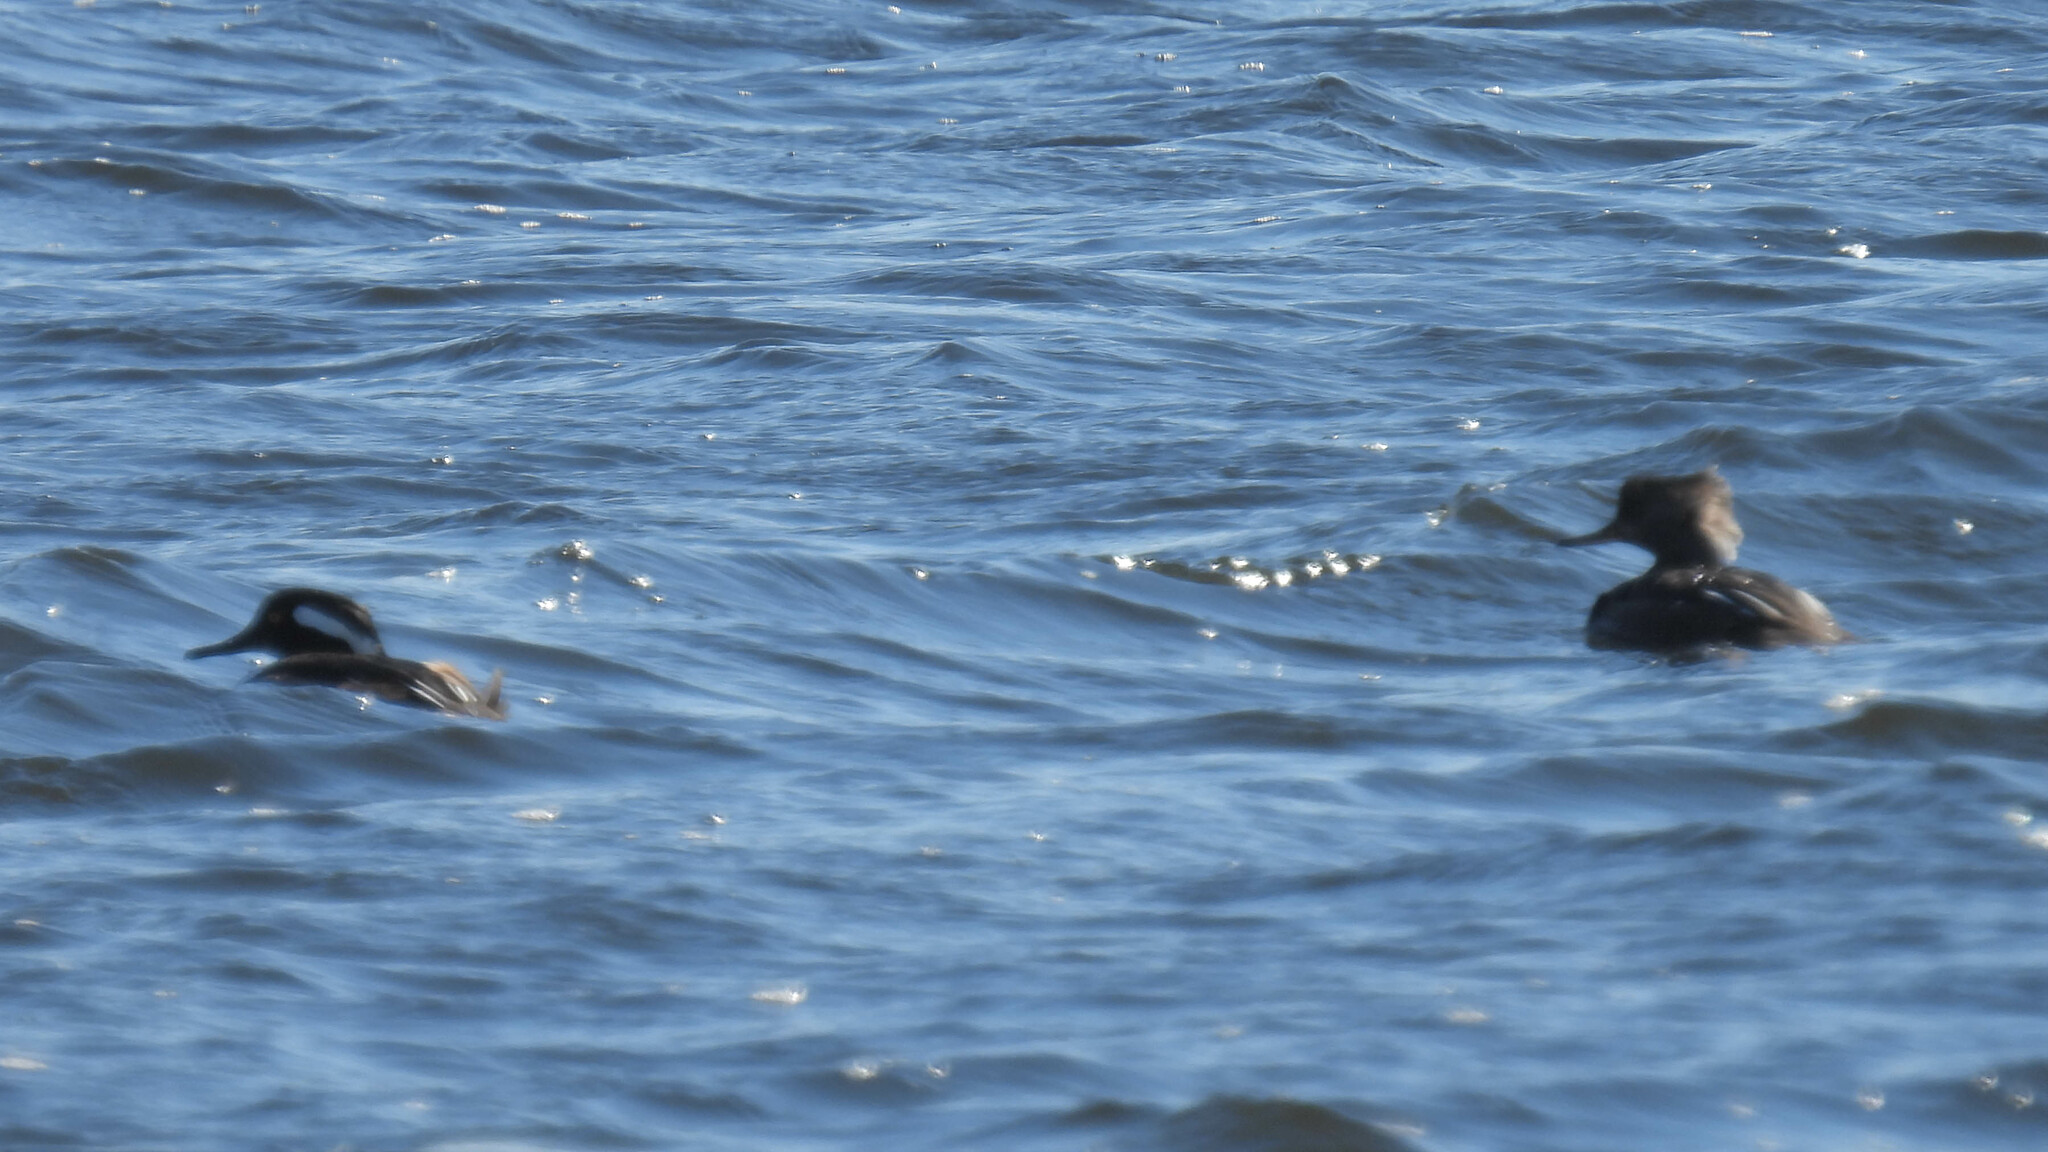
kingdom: Animalia
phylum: Chordata
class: Aves
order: Anseriformes
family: Anatidae
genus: Lophodytes
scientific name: Lophodytes cucullatus
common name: Hooded merganser
